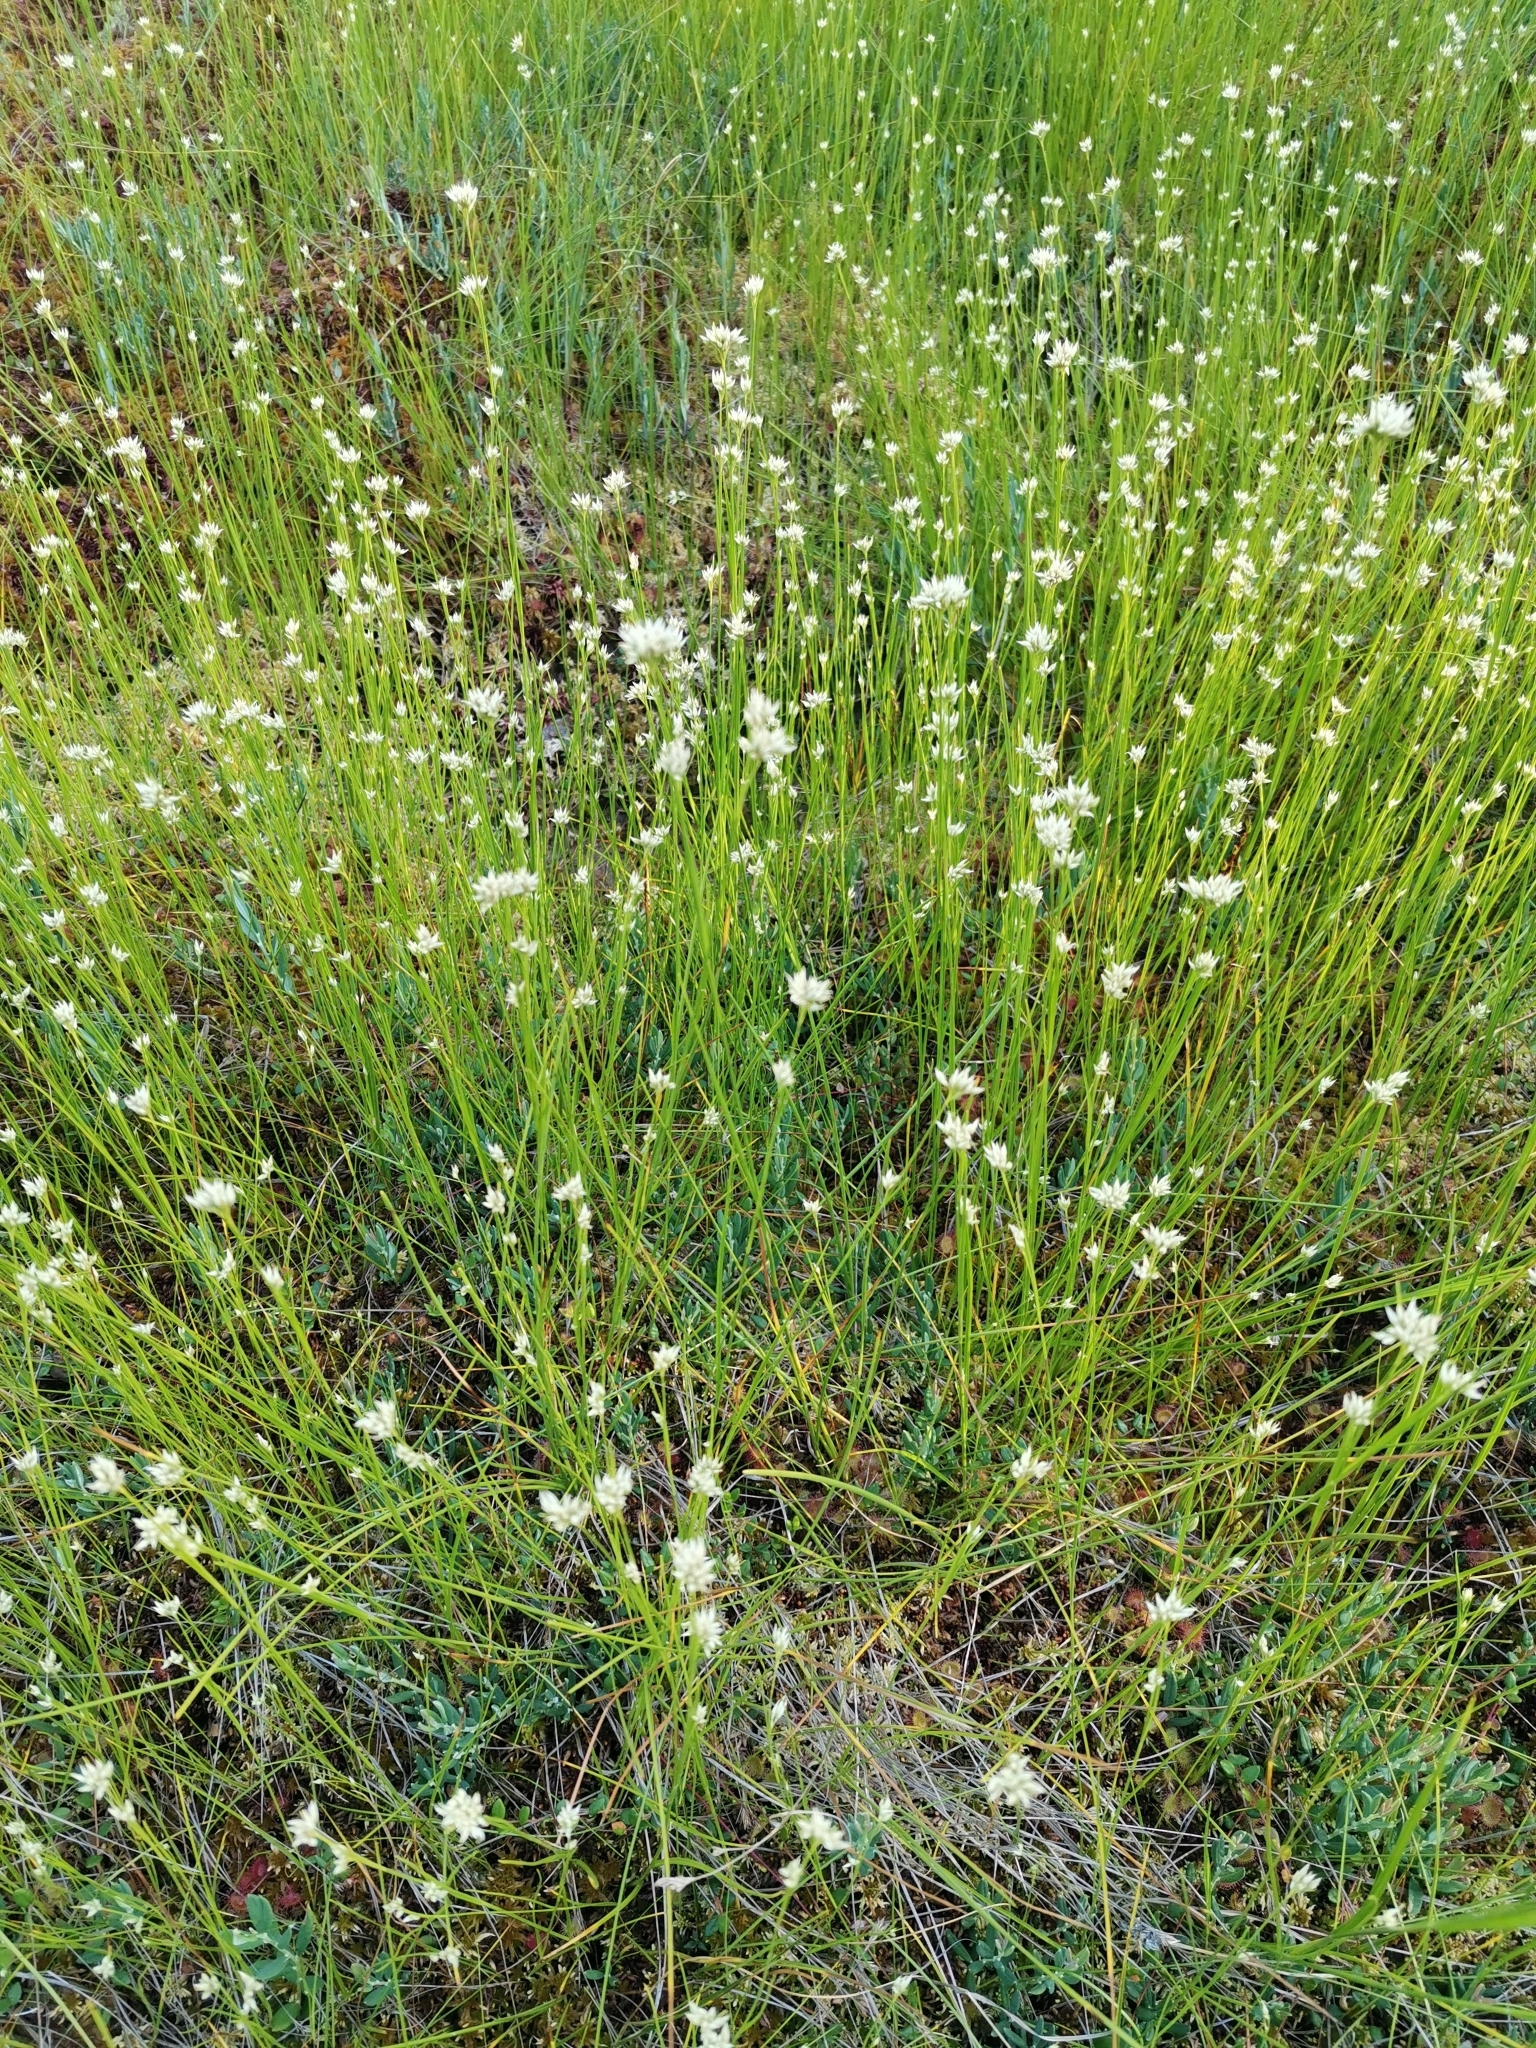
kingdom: Plantae
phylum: Tracheophyta
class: Liliopsida
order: Poales
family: Cyperaceae
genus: Rhynchospora
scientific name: Rhynchospora alba
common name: White beak-sedge
